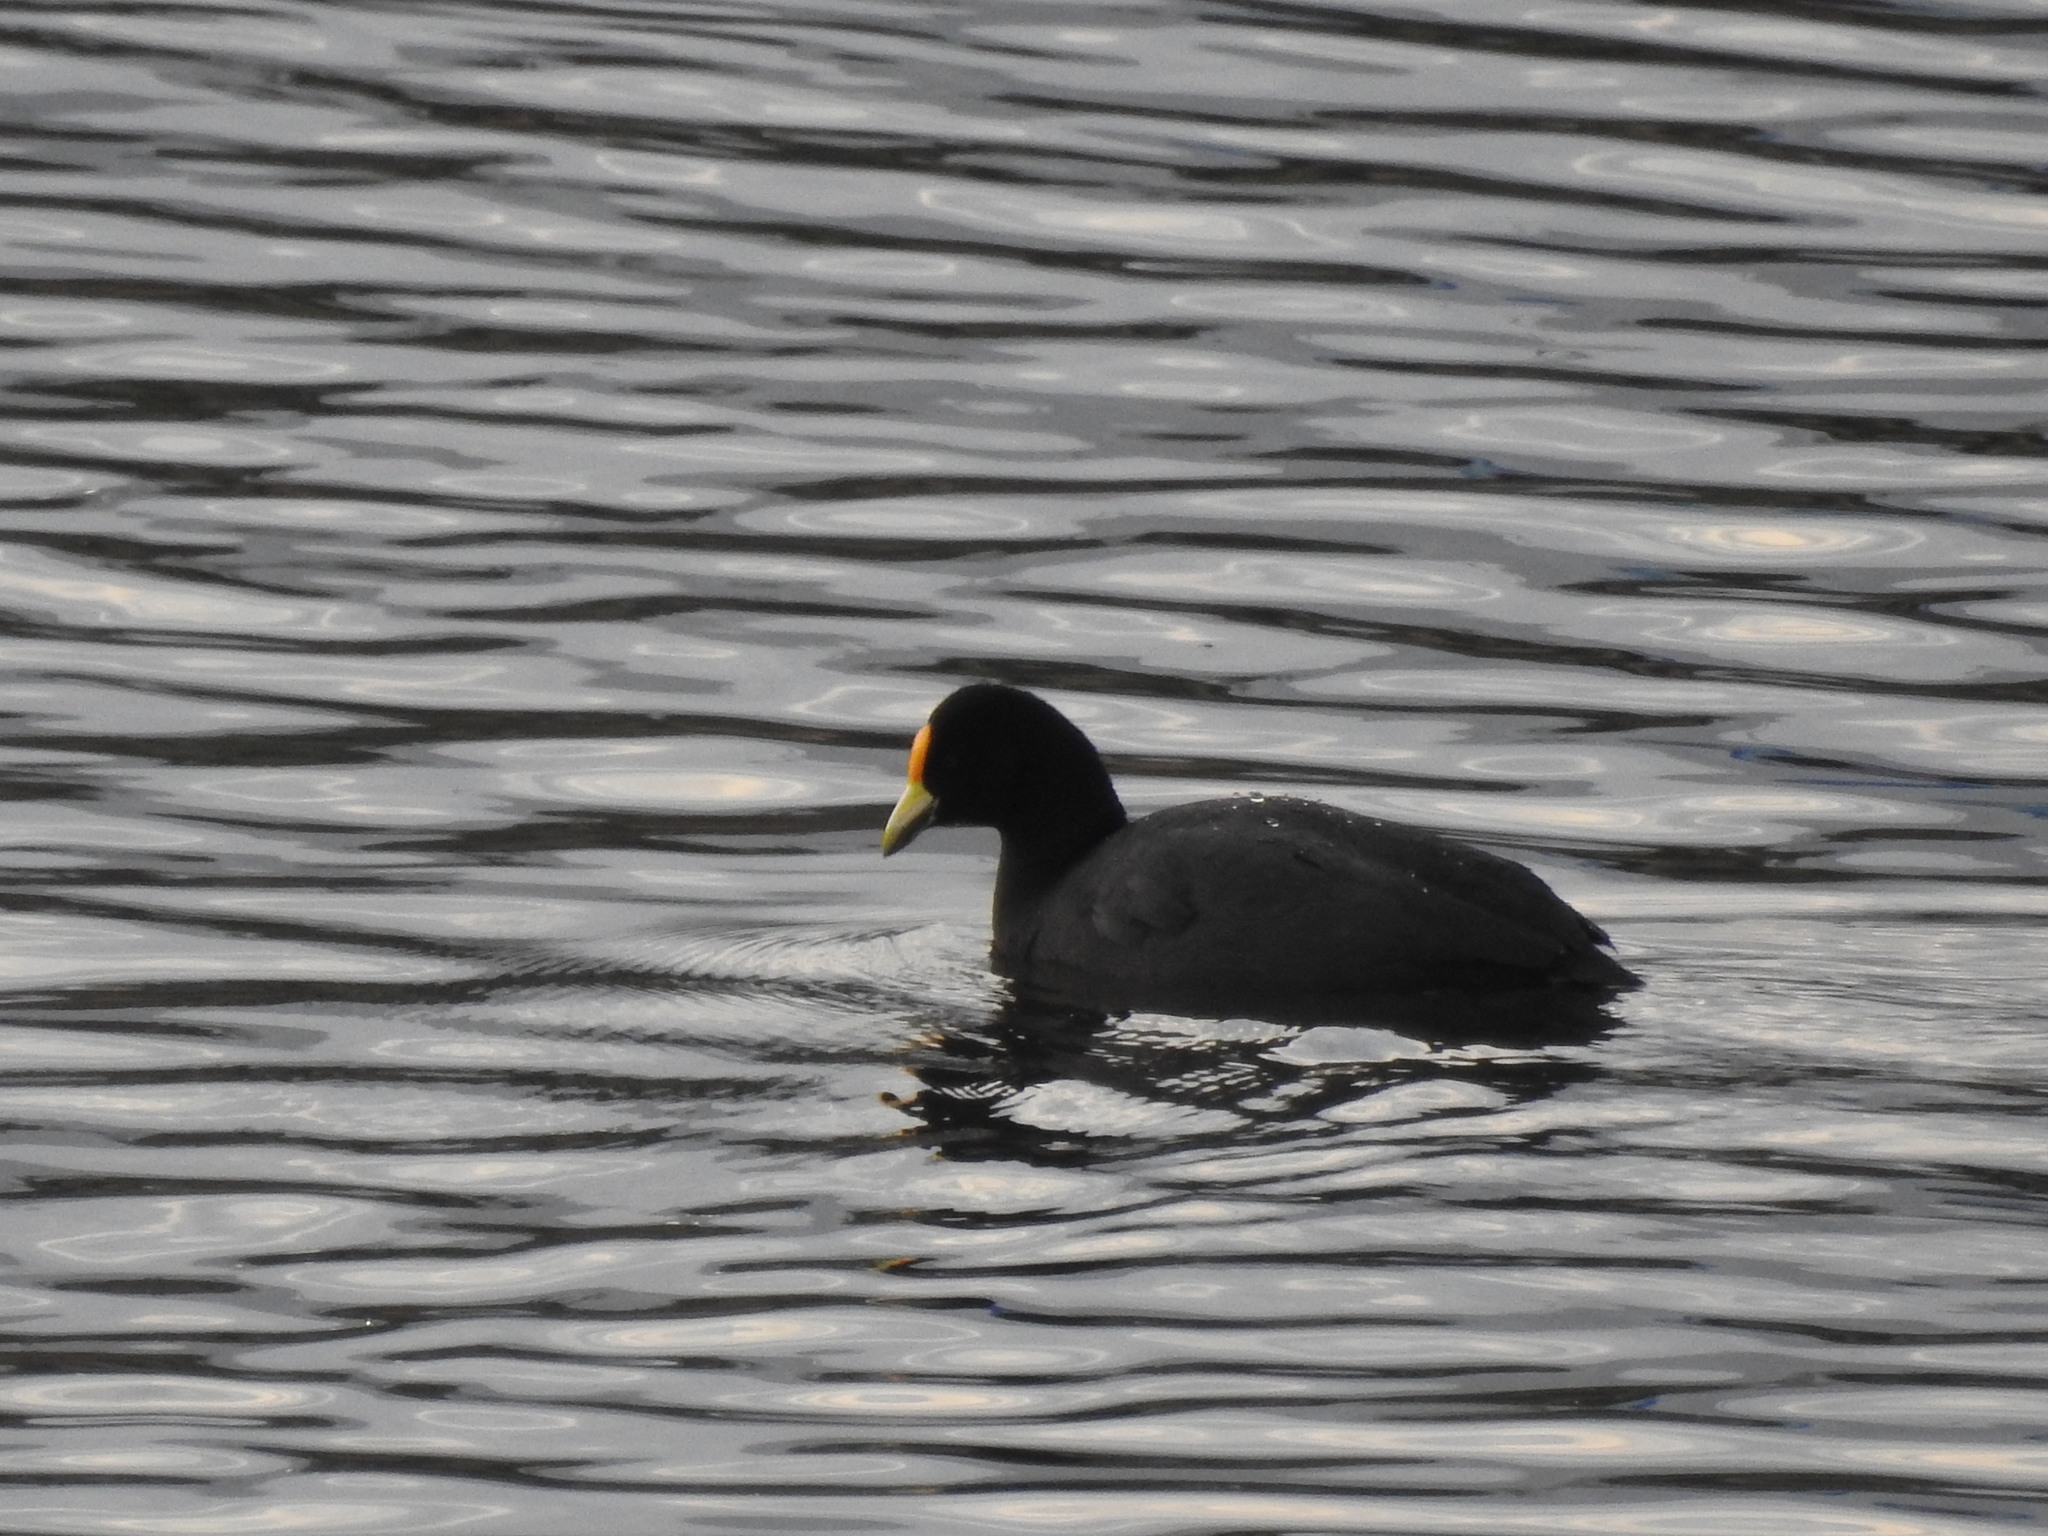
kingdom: Animalia
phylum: Chordata
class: Aves
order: Gruiformes
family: Rallidae
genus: Fulica
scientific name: Fulica leucoptera
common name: White-winged coot
